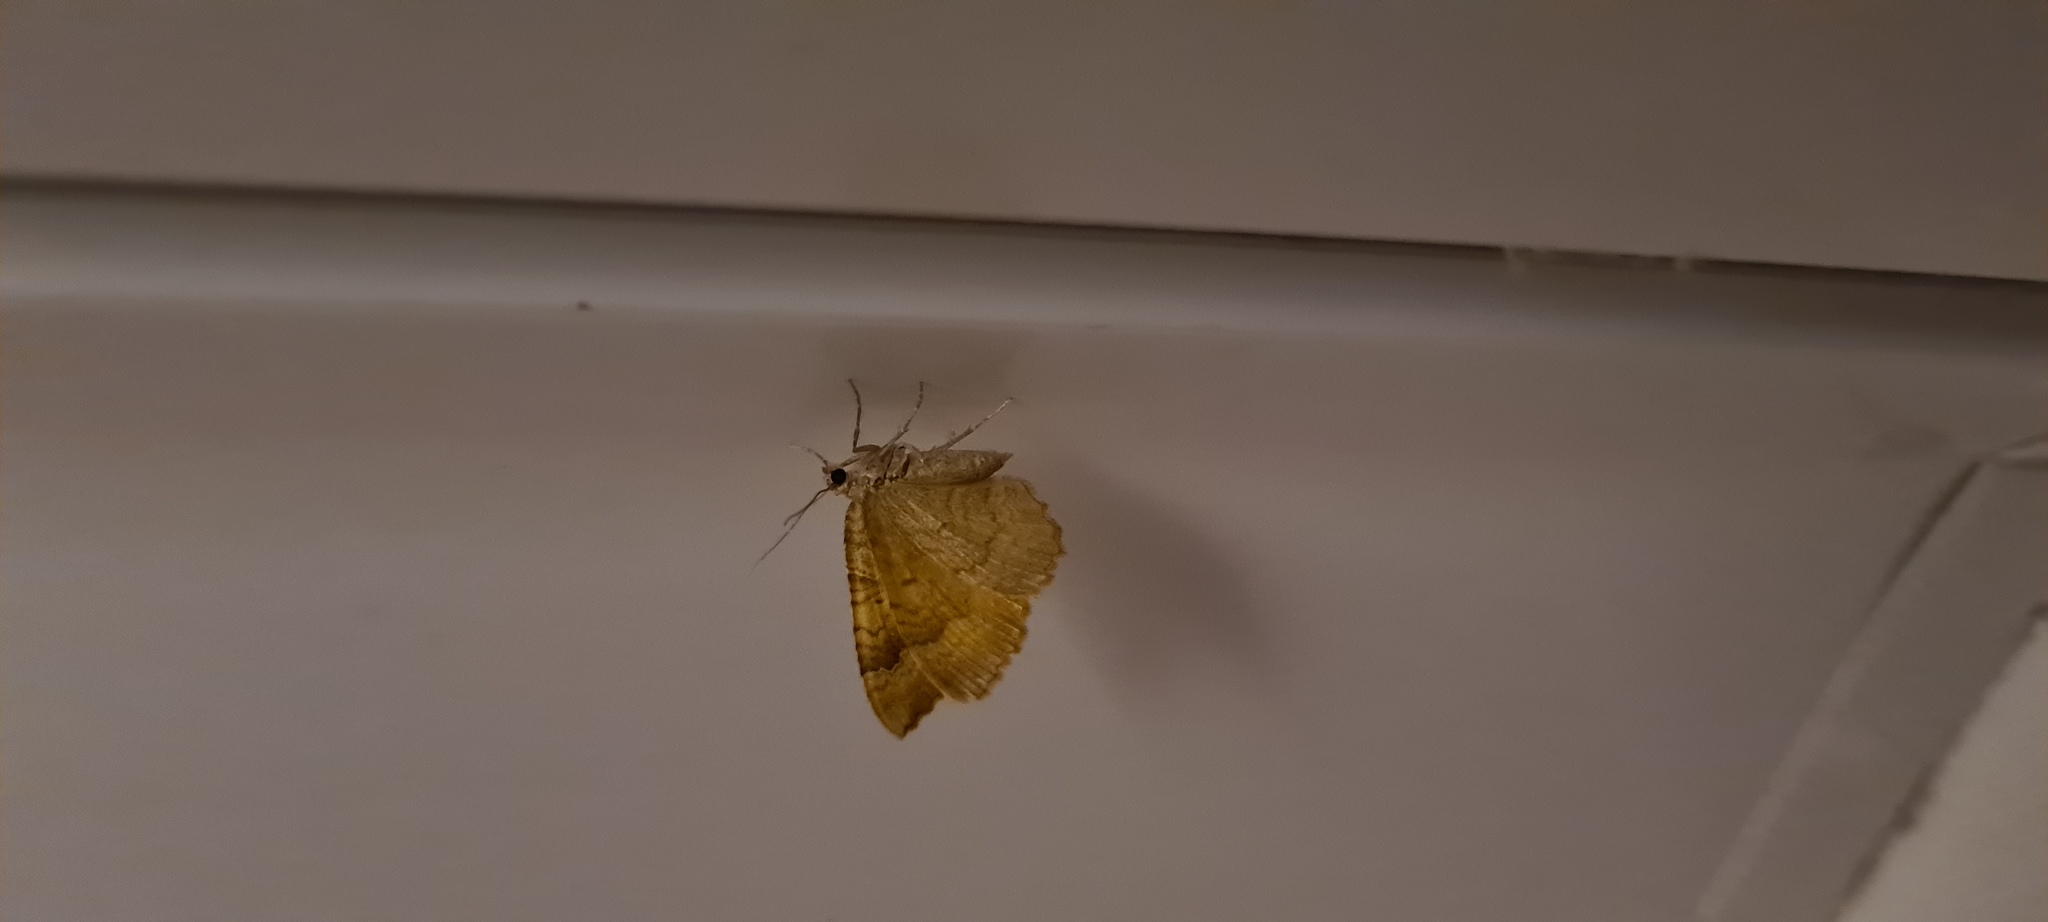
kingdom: Animalia
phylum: Arthropoda
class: Insecta
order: Lepidoptera
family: Geometridae
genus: Camptogramma
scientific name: Camptogramma bilineata
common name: Yellow shell
